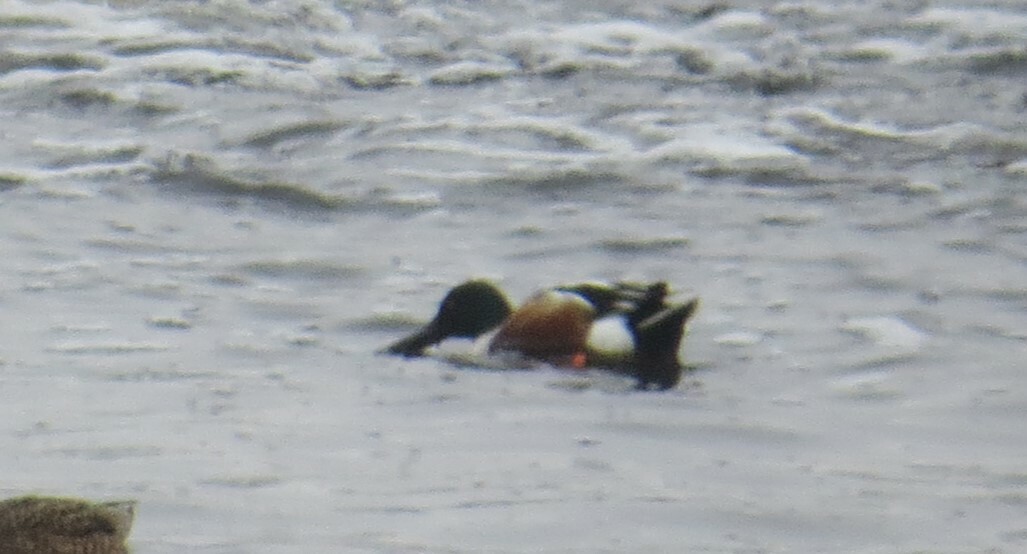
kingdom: Animalia
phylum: Chordata
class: Aves
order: Anseriformes
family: Anatidae
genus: Spatula
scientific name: Spatula clypeata
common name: Northern shoveler
